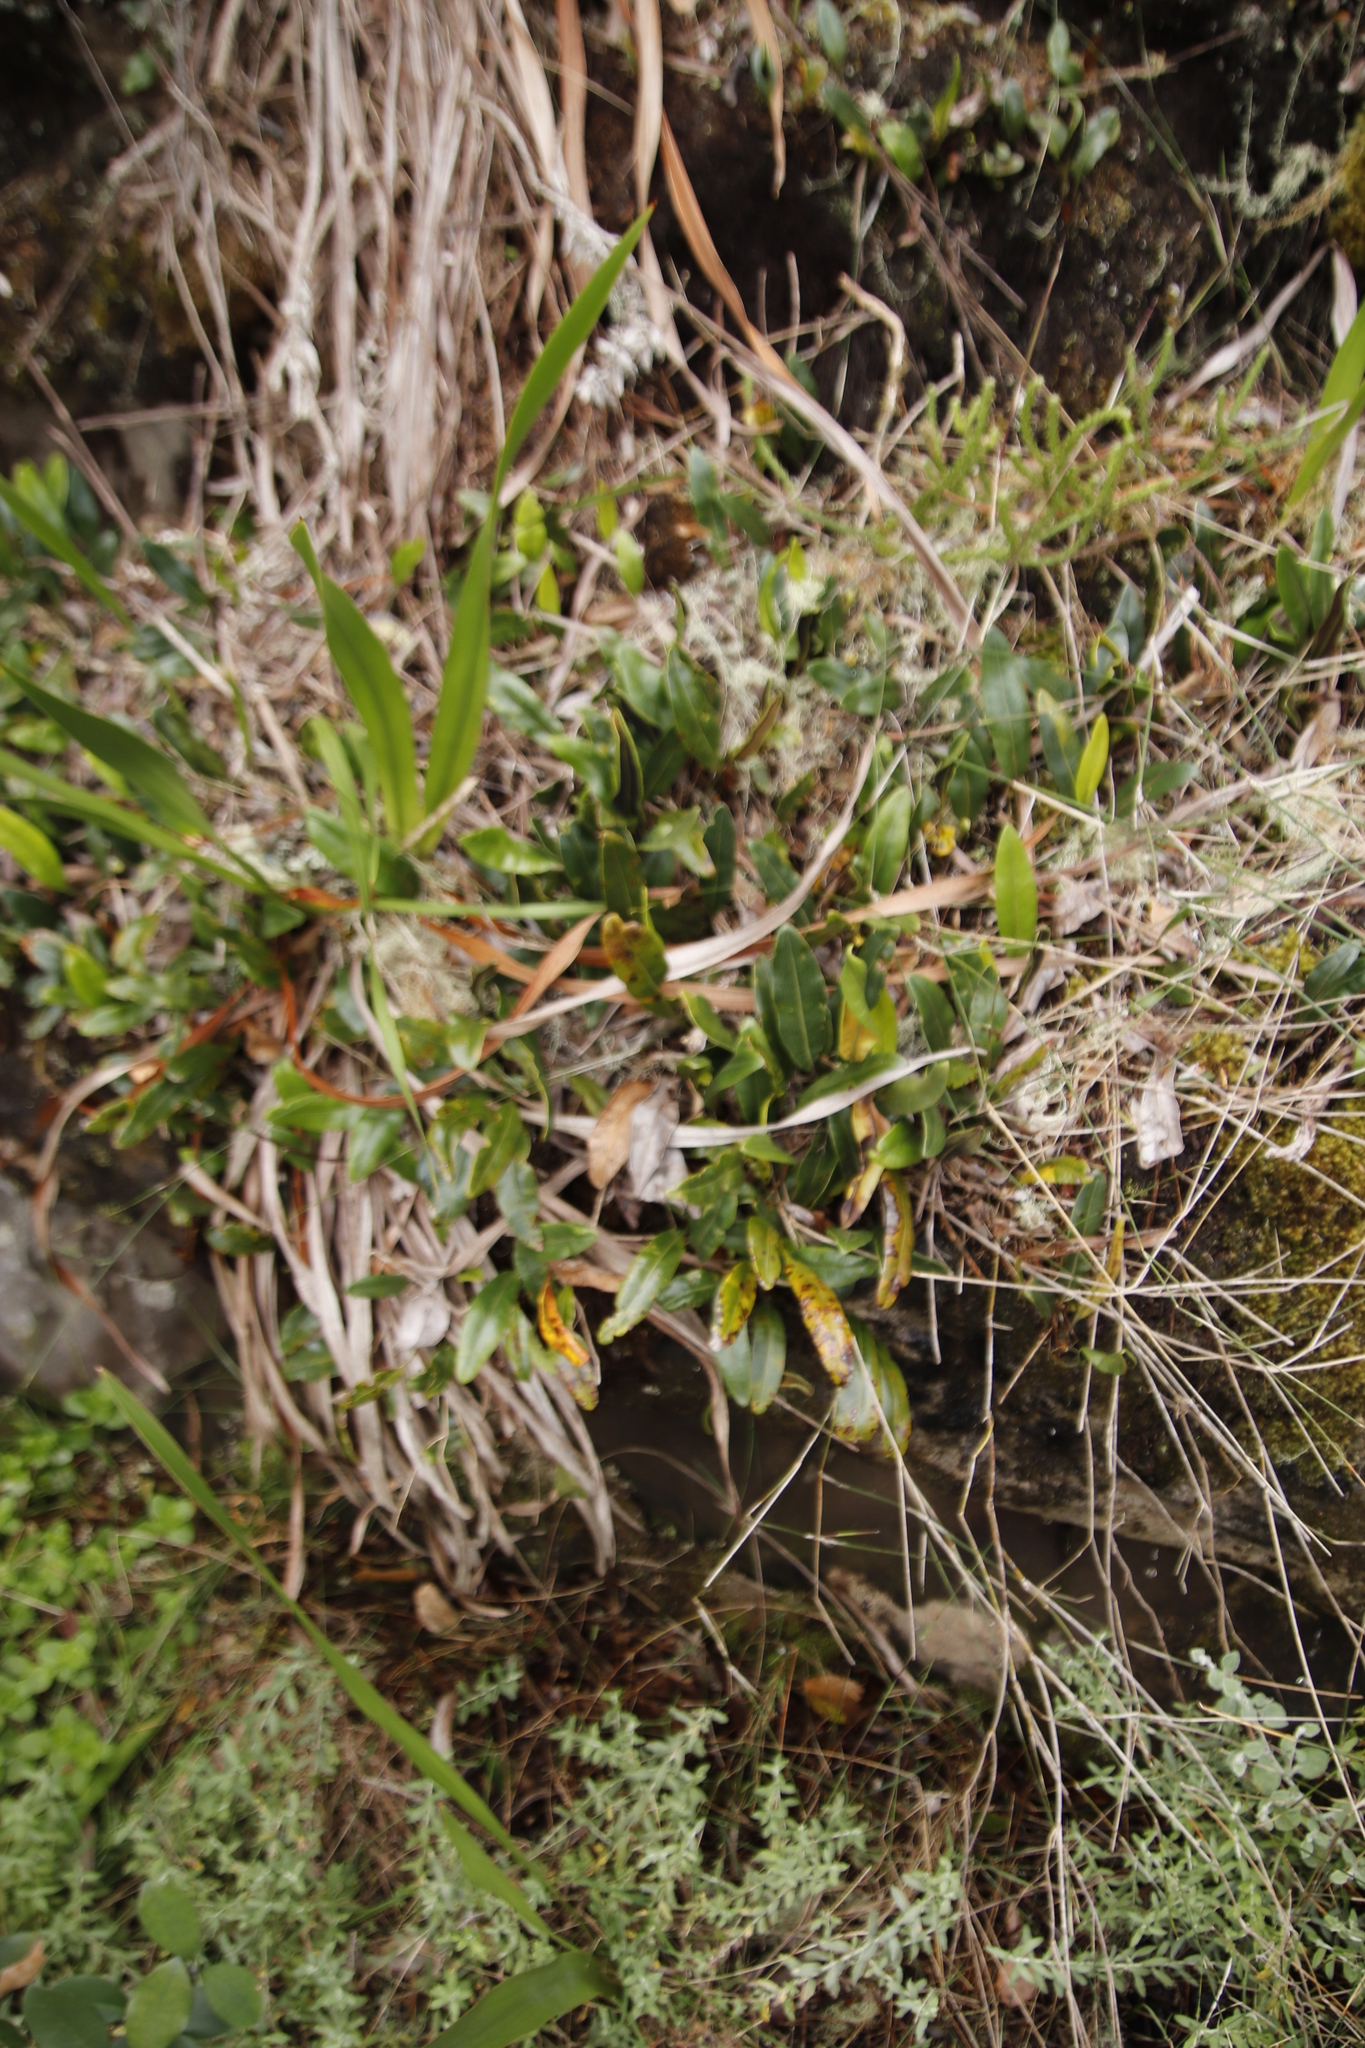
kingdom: Plantae
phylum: Tracheophyta
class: Polypodiopsida
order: Polypodiales
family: Dryopteridaceae
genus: Elaphoglossum
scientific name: Elaphoglossum conforme
